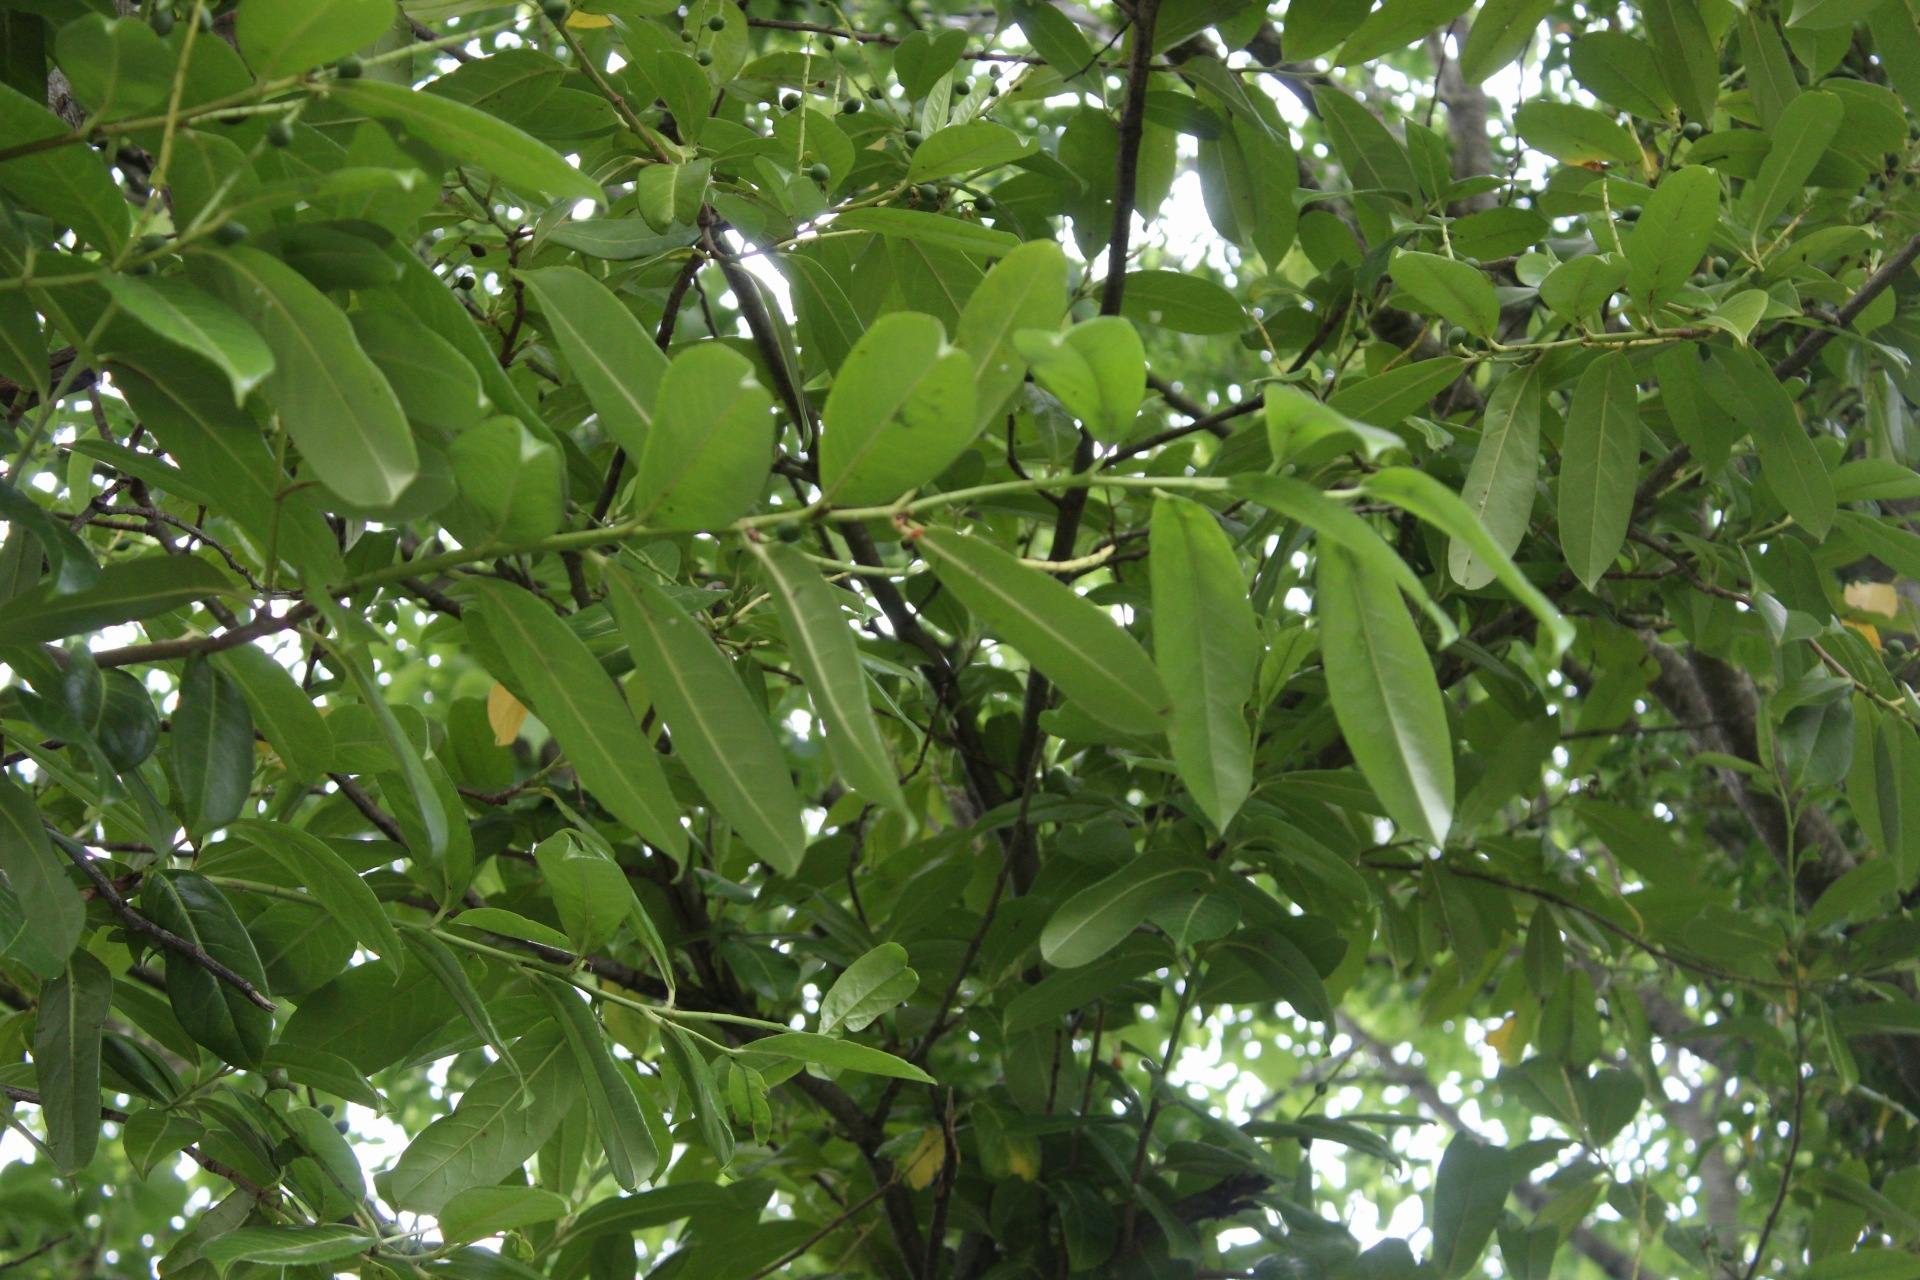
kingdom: Plantae
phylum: Tracheophyta
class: Magnoliopsida
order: Rosales
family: Rosaceae
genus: Prunus
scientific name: Prunus laurocerasus
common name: Cherry laurel
